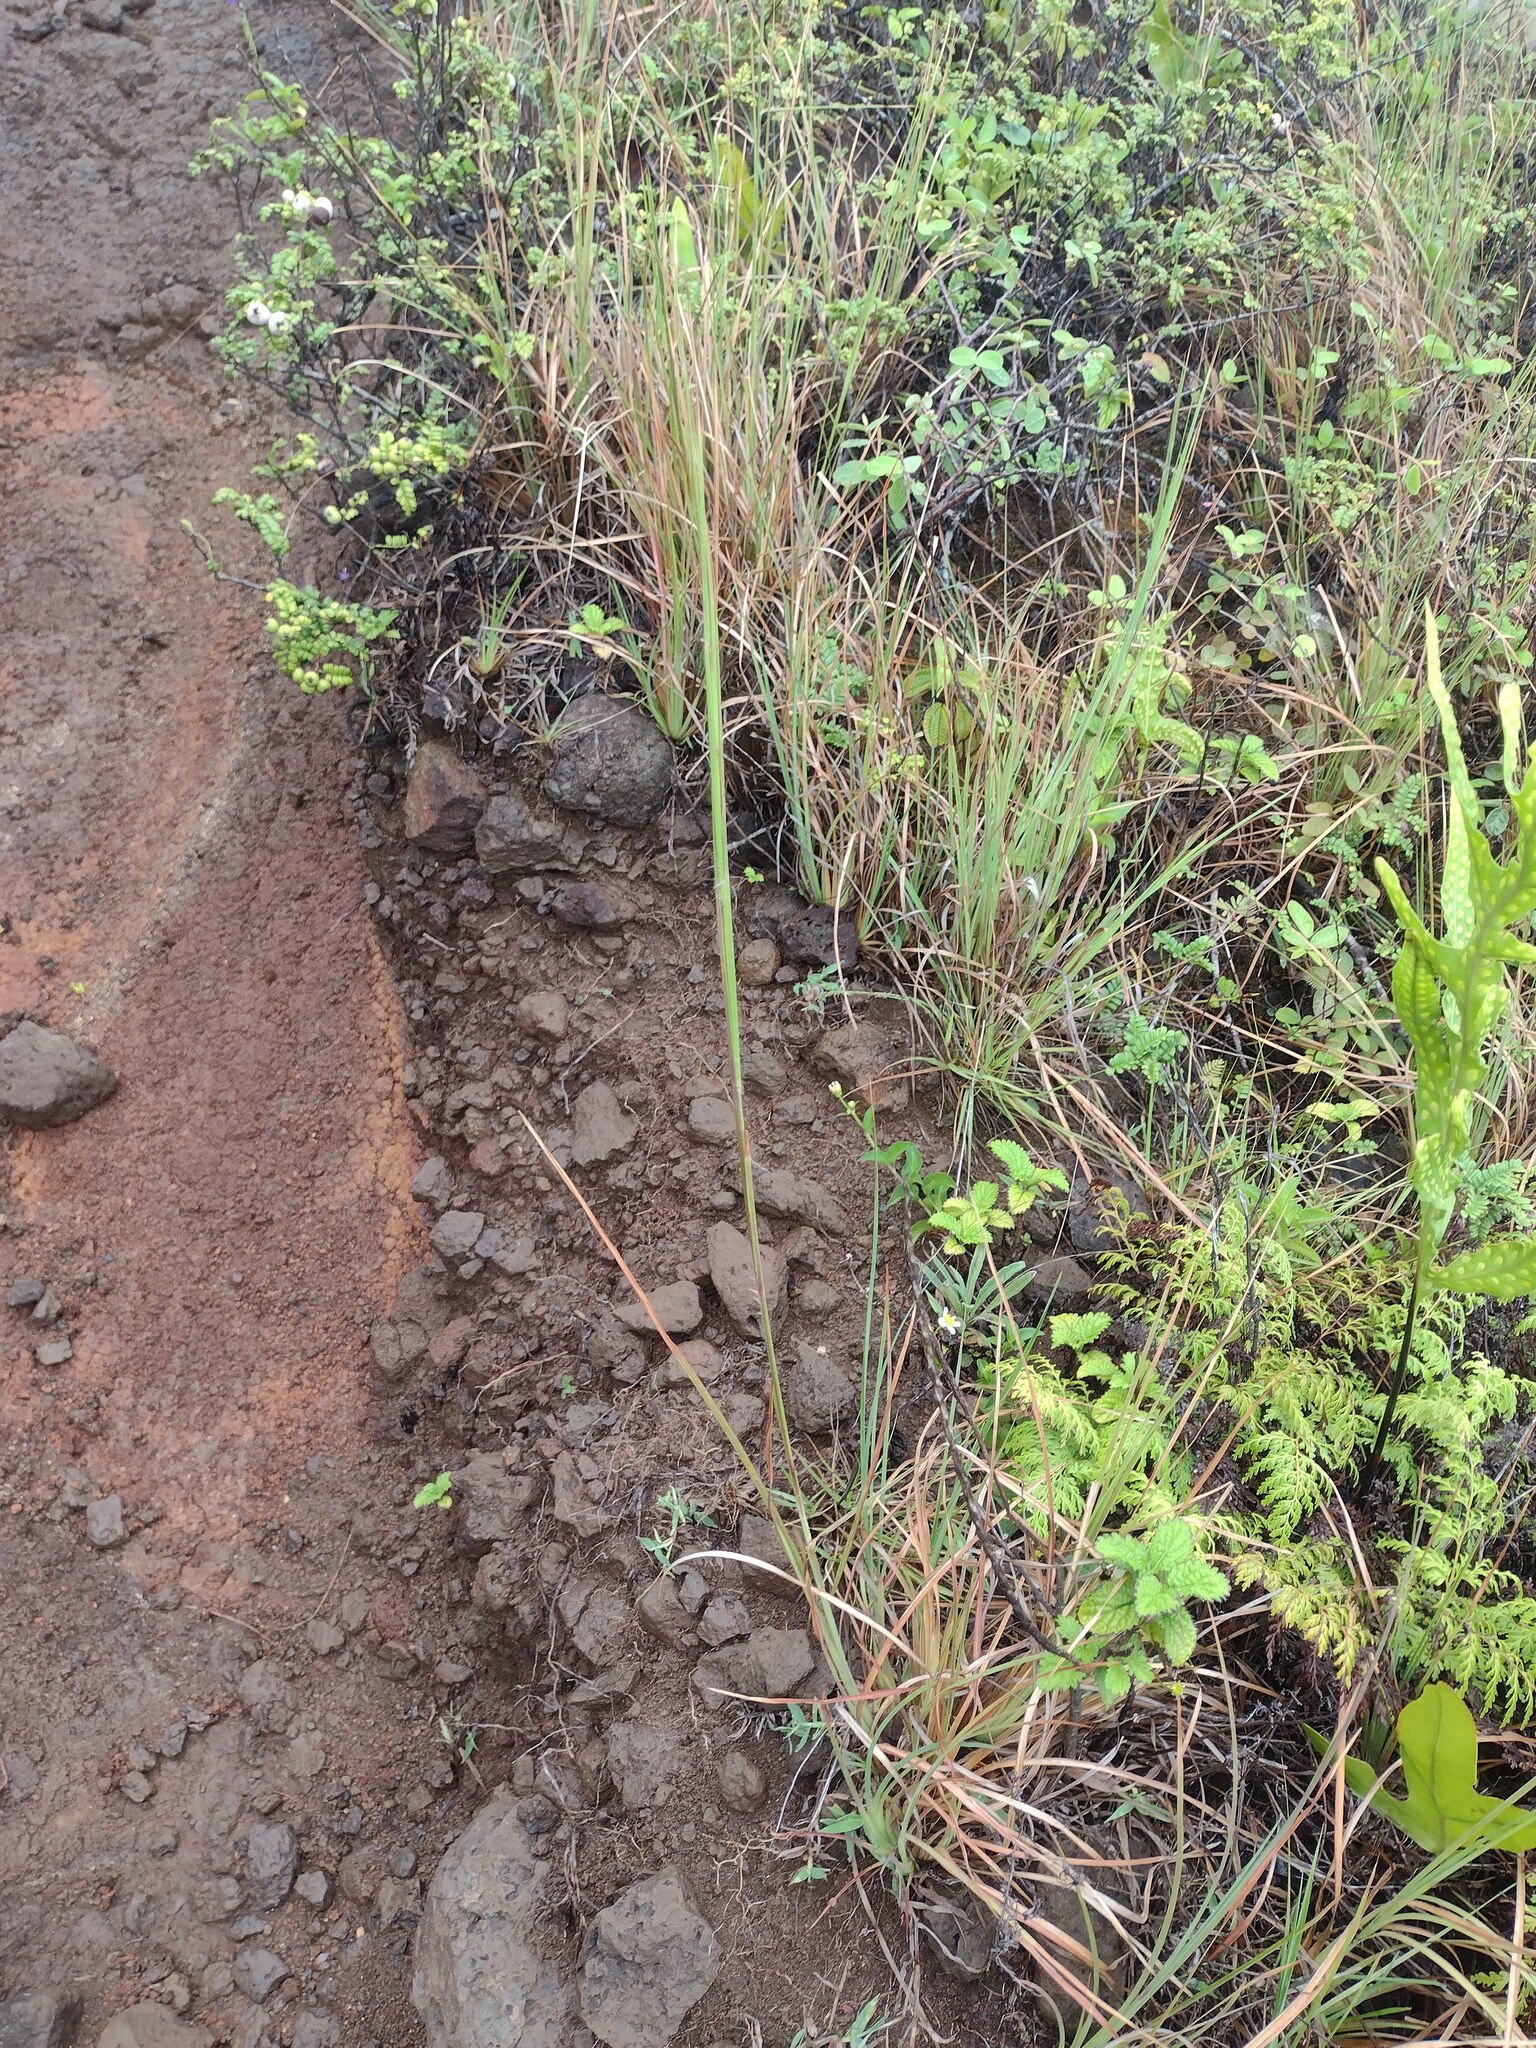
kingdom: Plantae
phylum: Tracheophyta
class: Liliopsida
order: Poales
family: Poaceae
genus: Andropogon
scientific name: Andropogon virginicus
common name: Broomsedge bluestem
